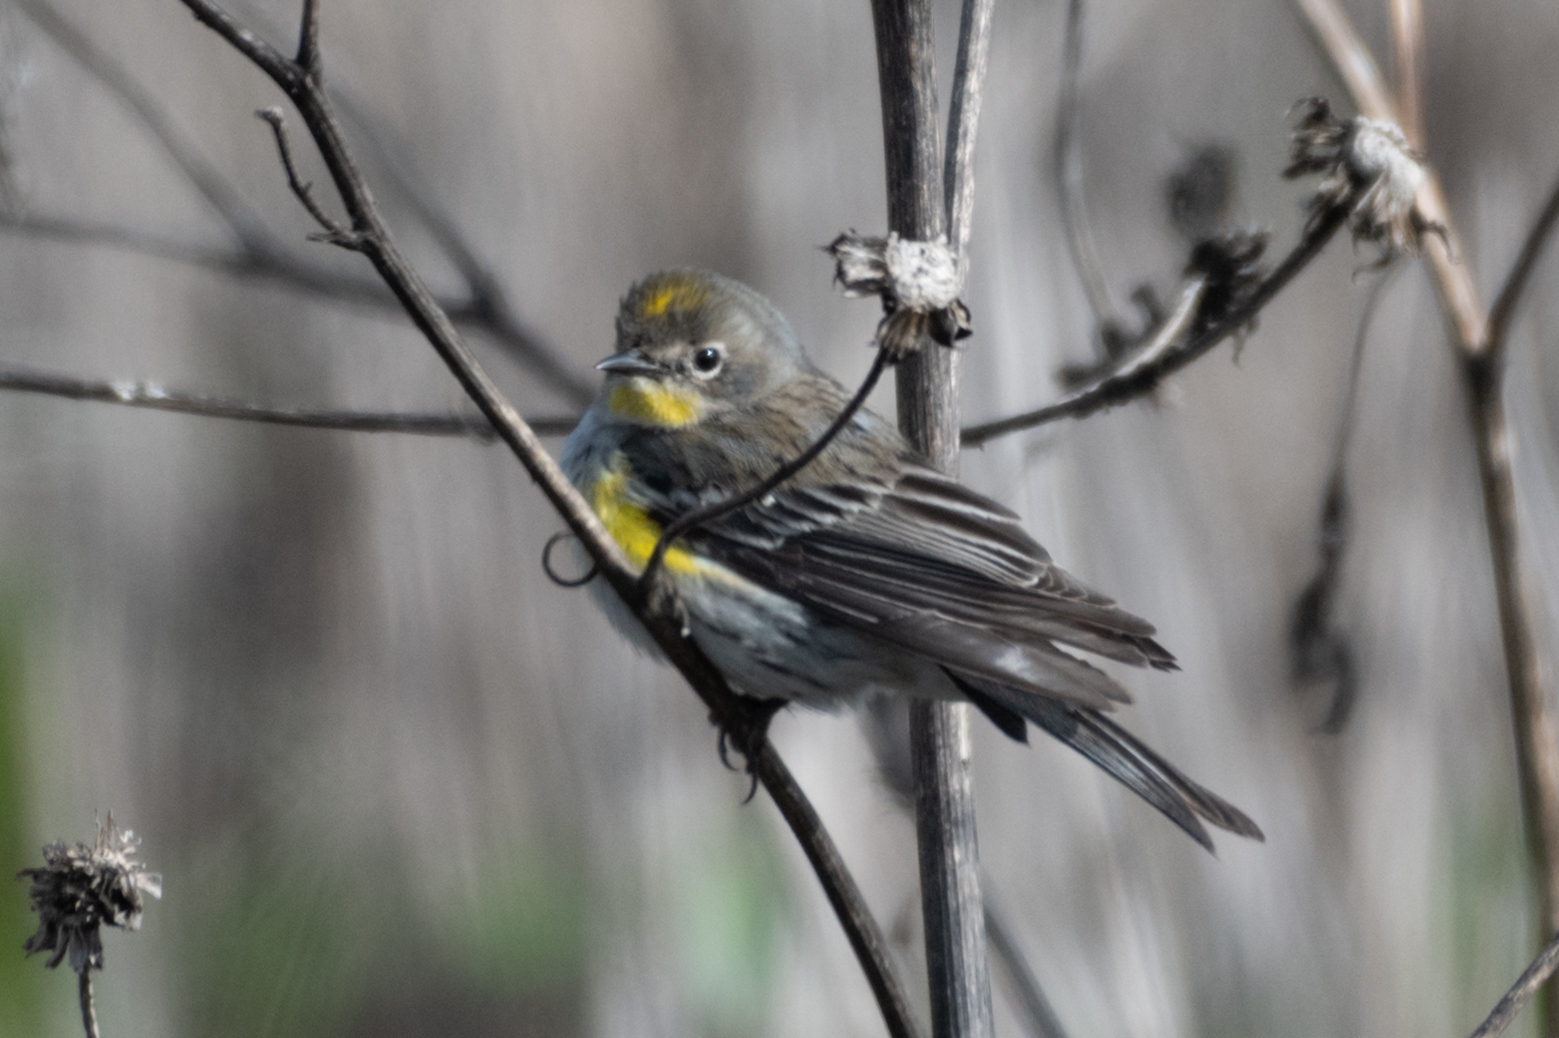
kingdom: Animalia
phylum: Chordata
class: Aves
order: Passeriformes
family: Parulidae
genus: Setophaga
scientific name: Setophaga coronata
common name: Myrtle warbler
